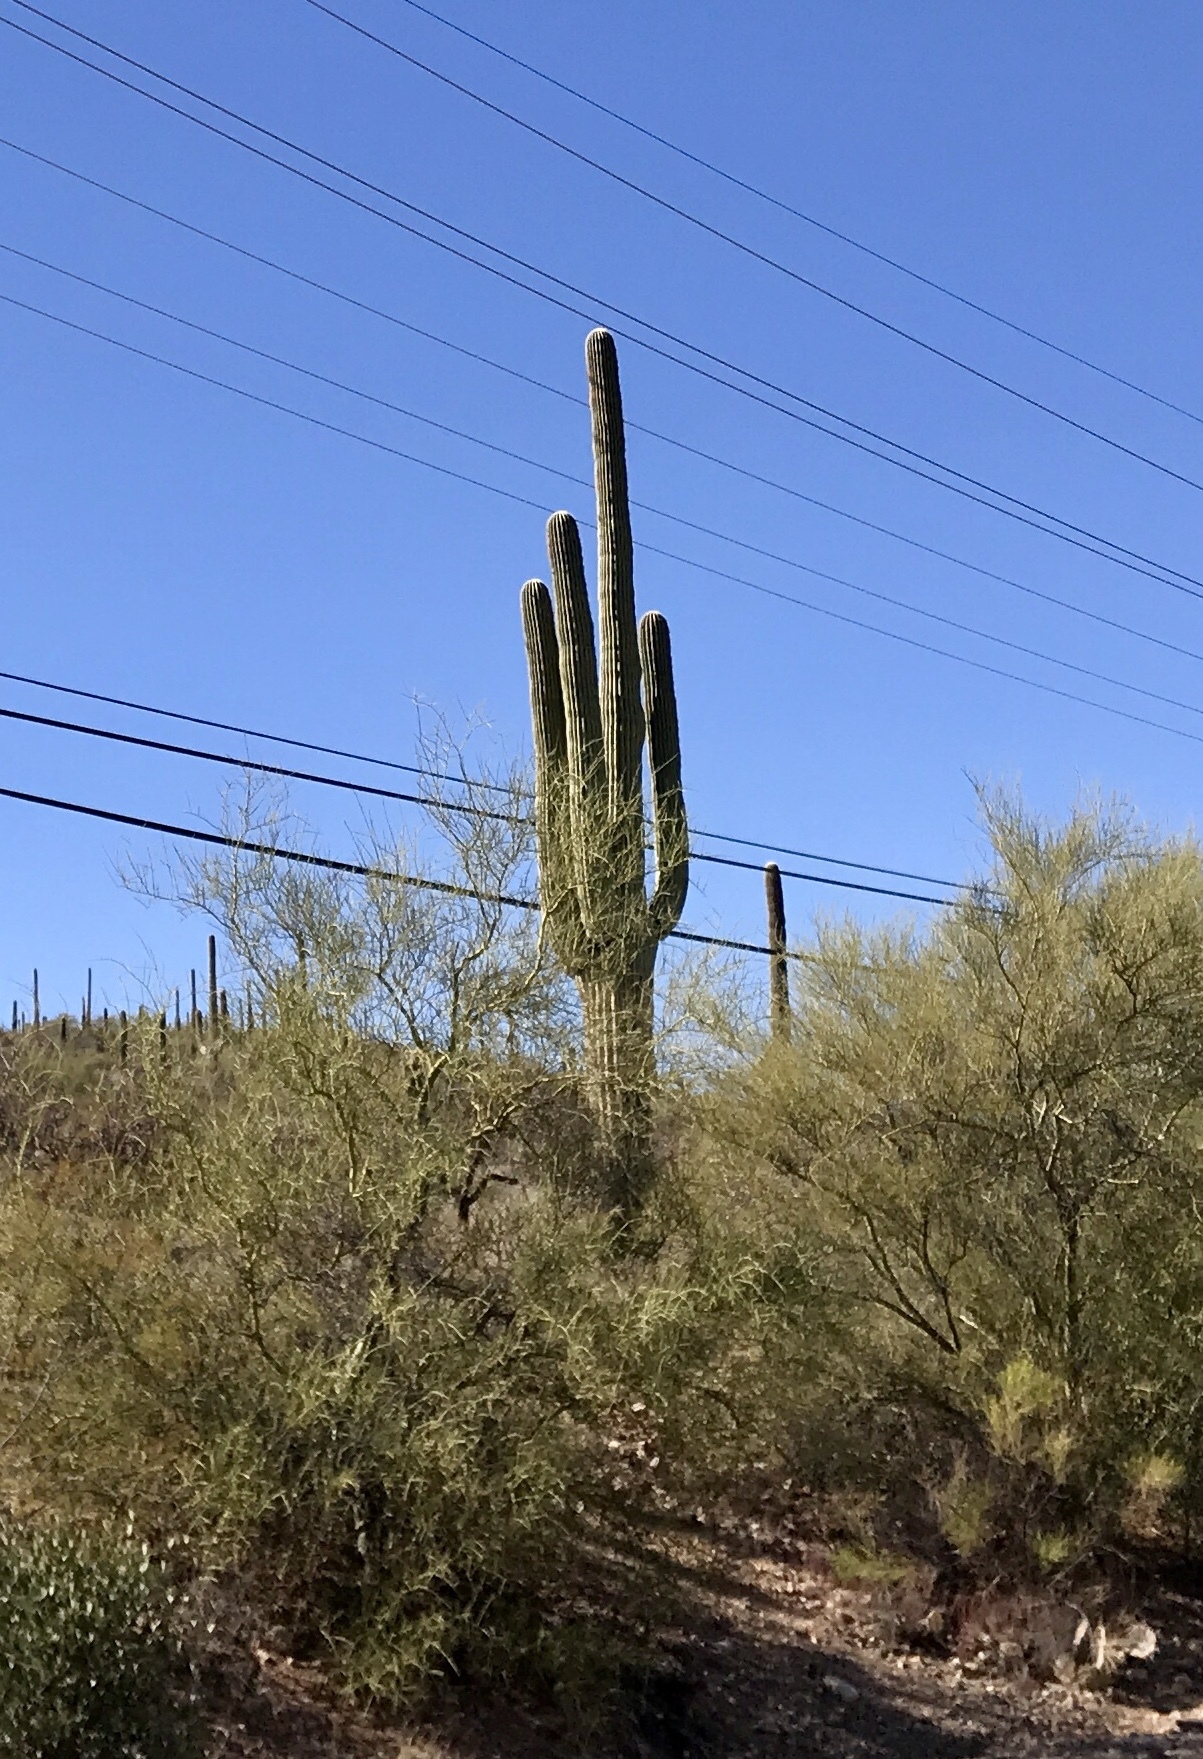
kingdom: Plantae
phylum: Tracheophyta
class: Magnoliopsida
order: Caryophyllales
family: Cactaceae
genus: Carnegiea
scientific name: Carnegiea gigantea
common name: Saguaro
